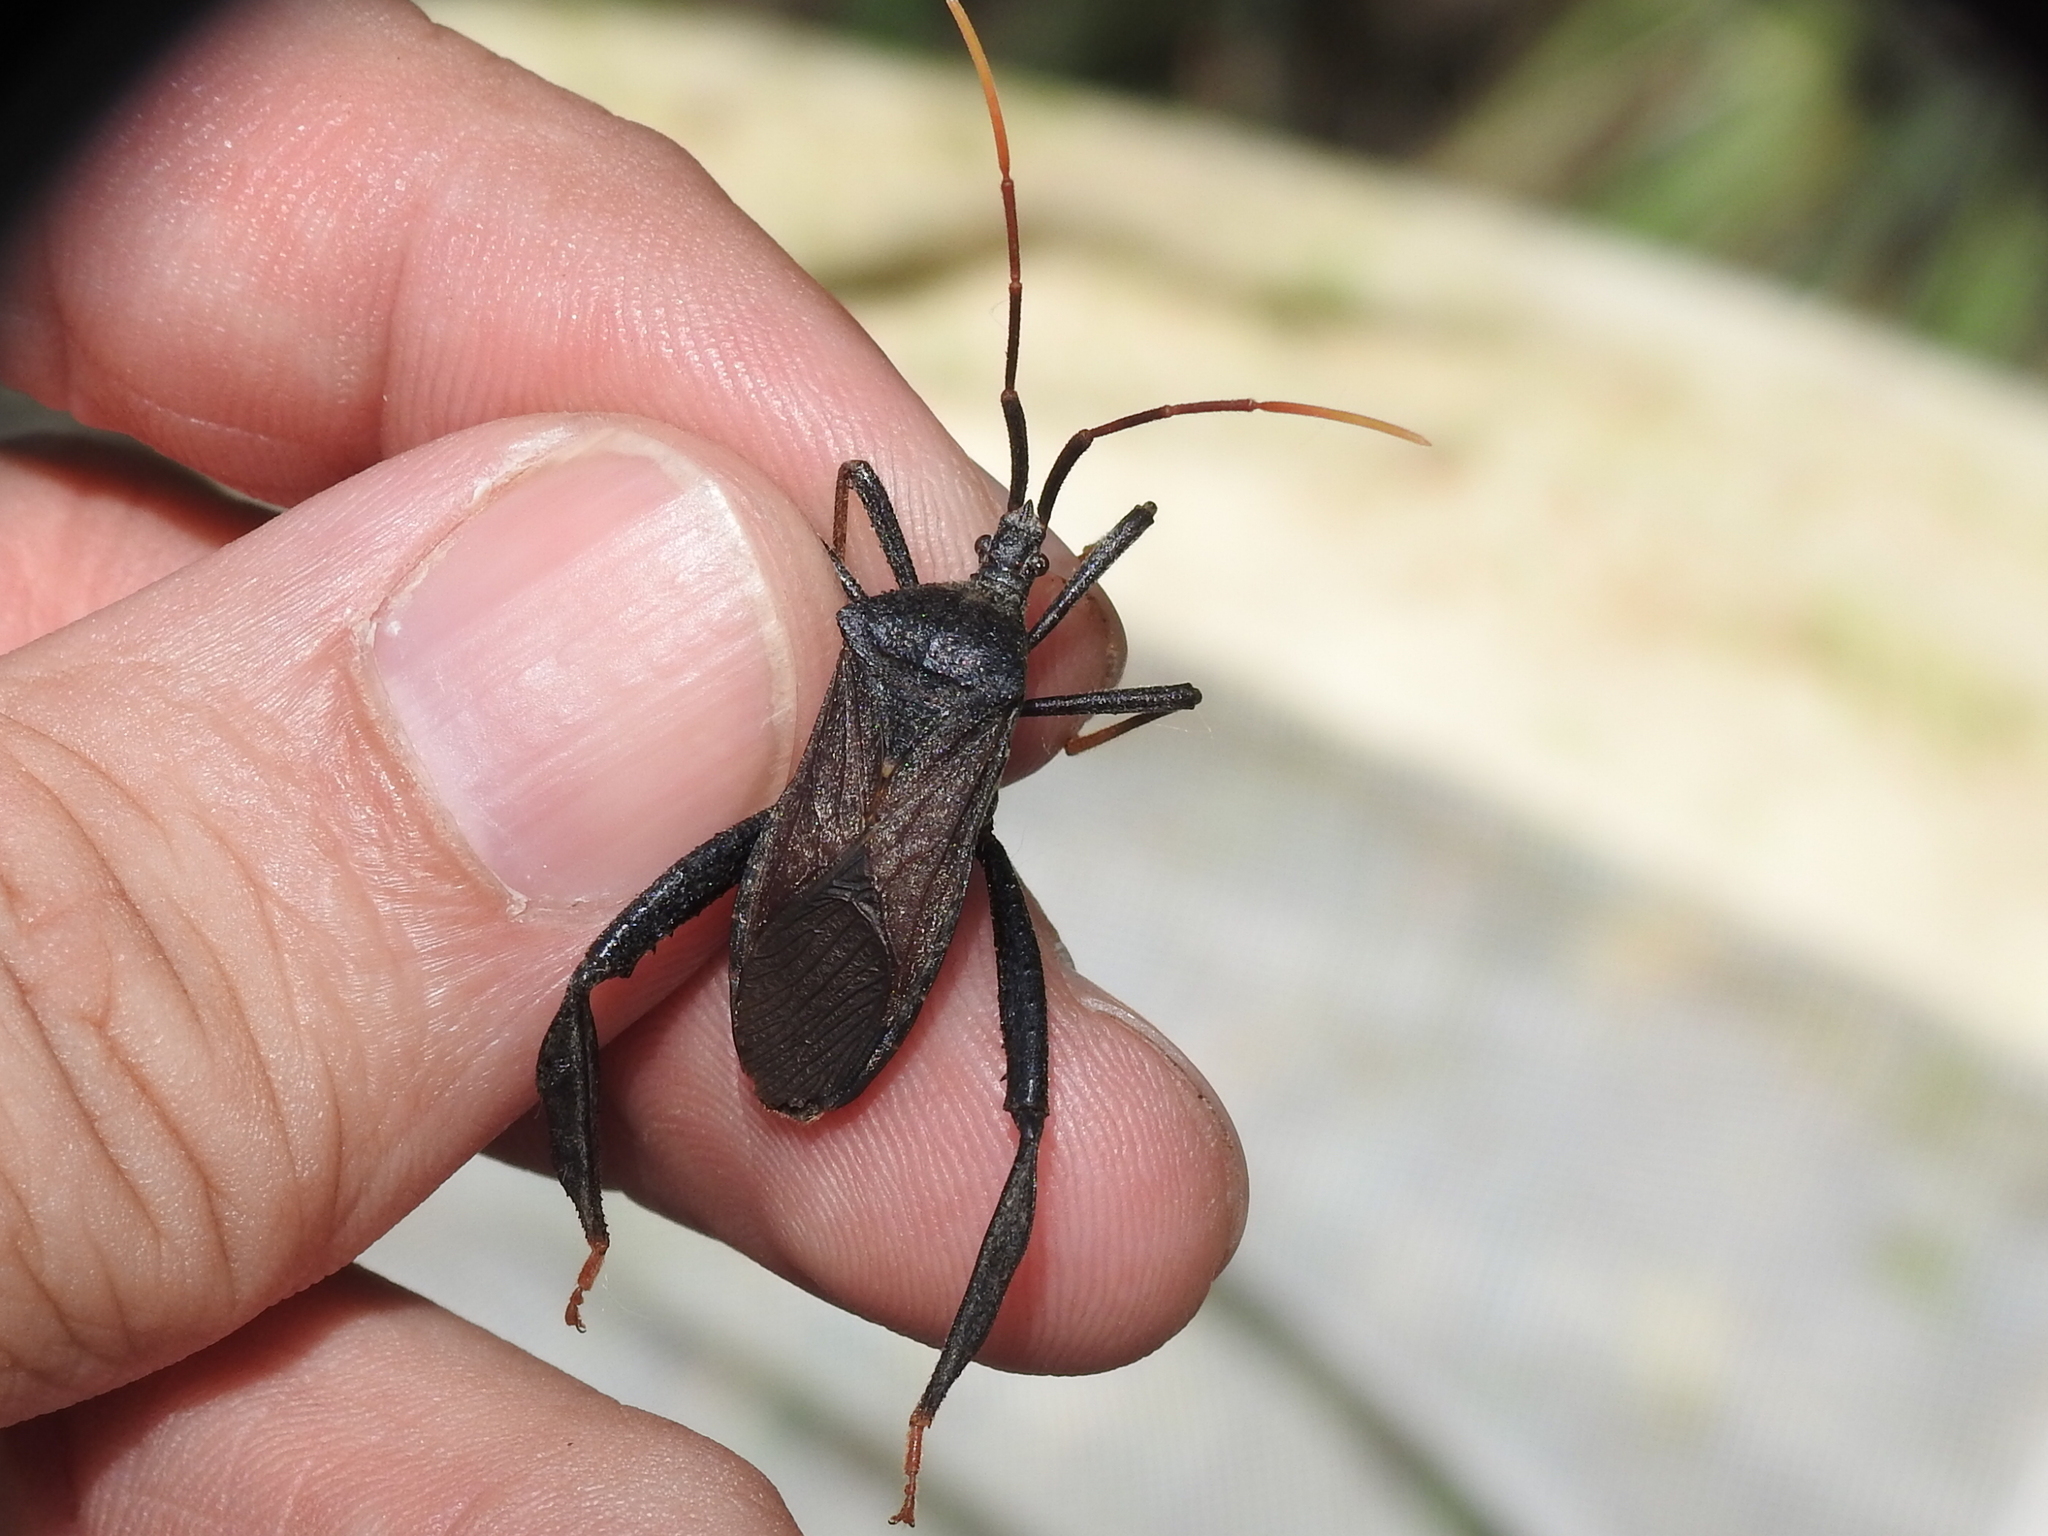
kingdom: Animalia
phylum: Arthropoda
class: Insecta
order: Hemiptera
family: Coreidae
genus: Acanthocephala
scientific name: Acanthocephala femorata
